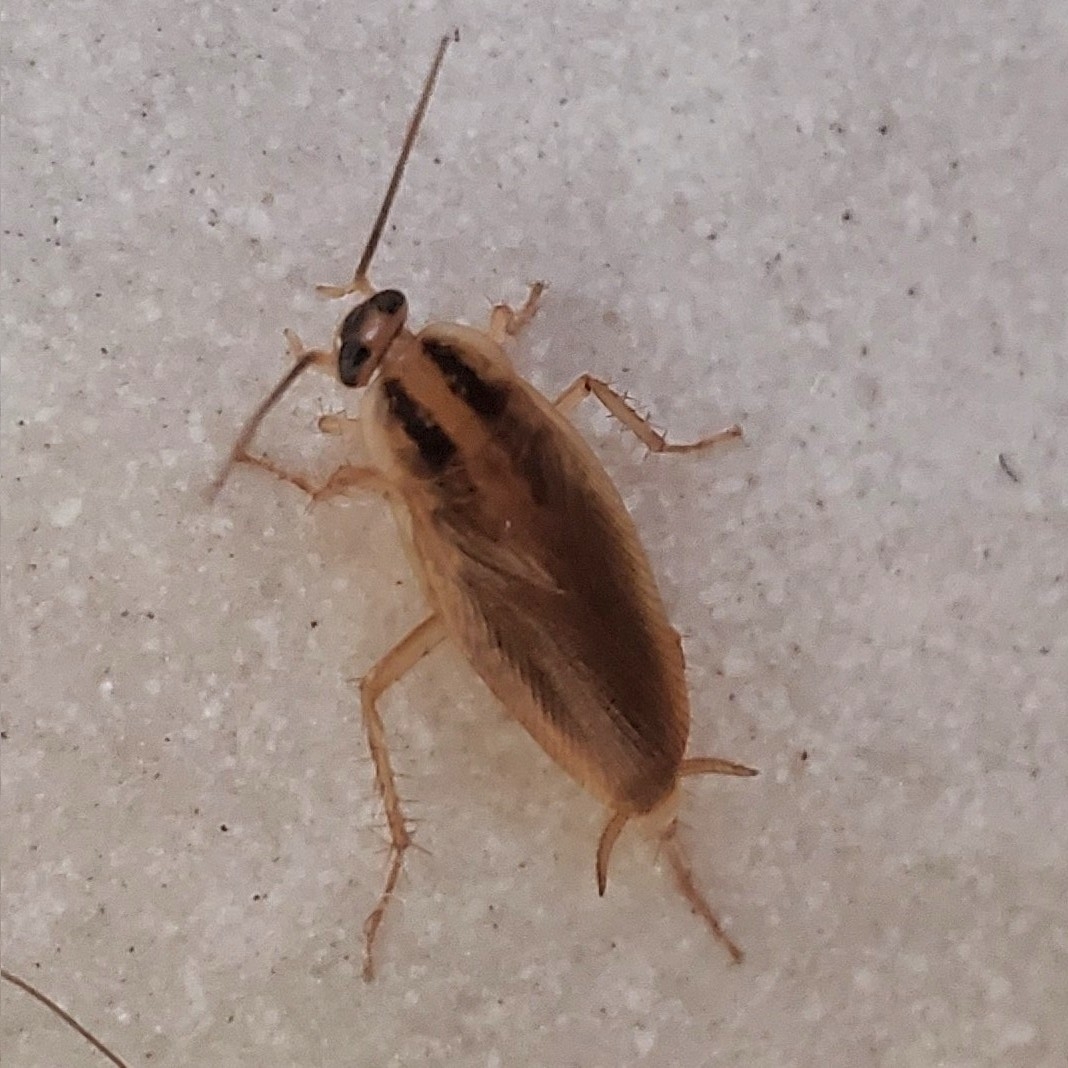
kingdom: Animalia
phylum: Arthropoda
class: Insecta
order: Blattodea
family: Ectobiidae
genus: Blattella
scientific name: Blattella germanica
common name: German cockroach
